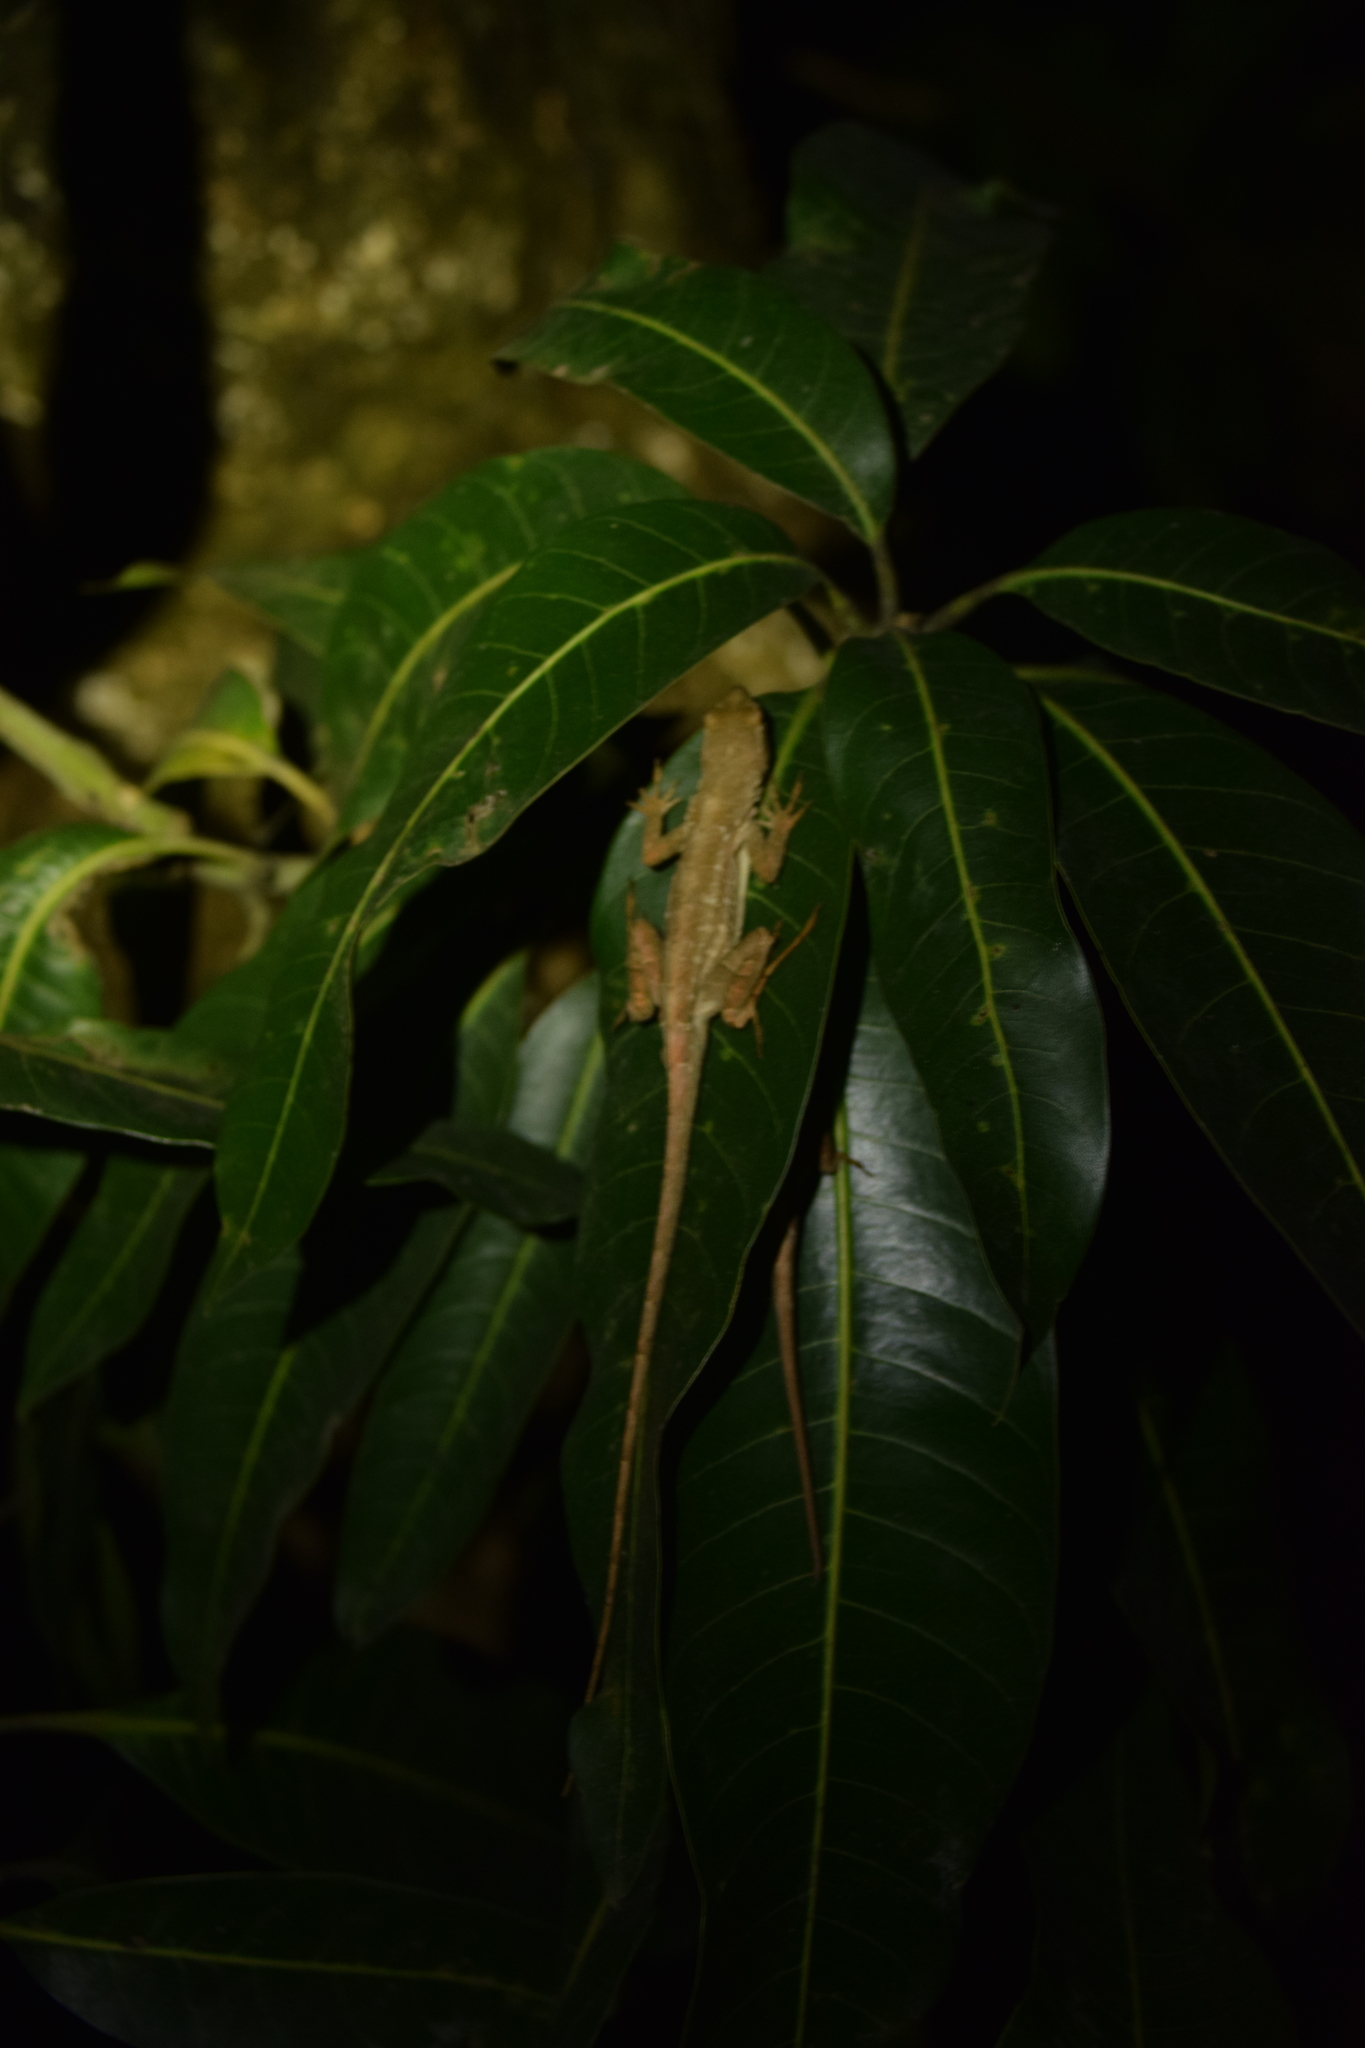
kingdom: Animalia
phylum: Chordata
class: Squamata
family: Dactyloidae
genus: Anolis
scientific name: Anolis sagrei
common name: Brown anole
